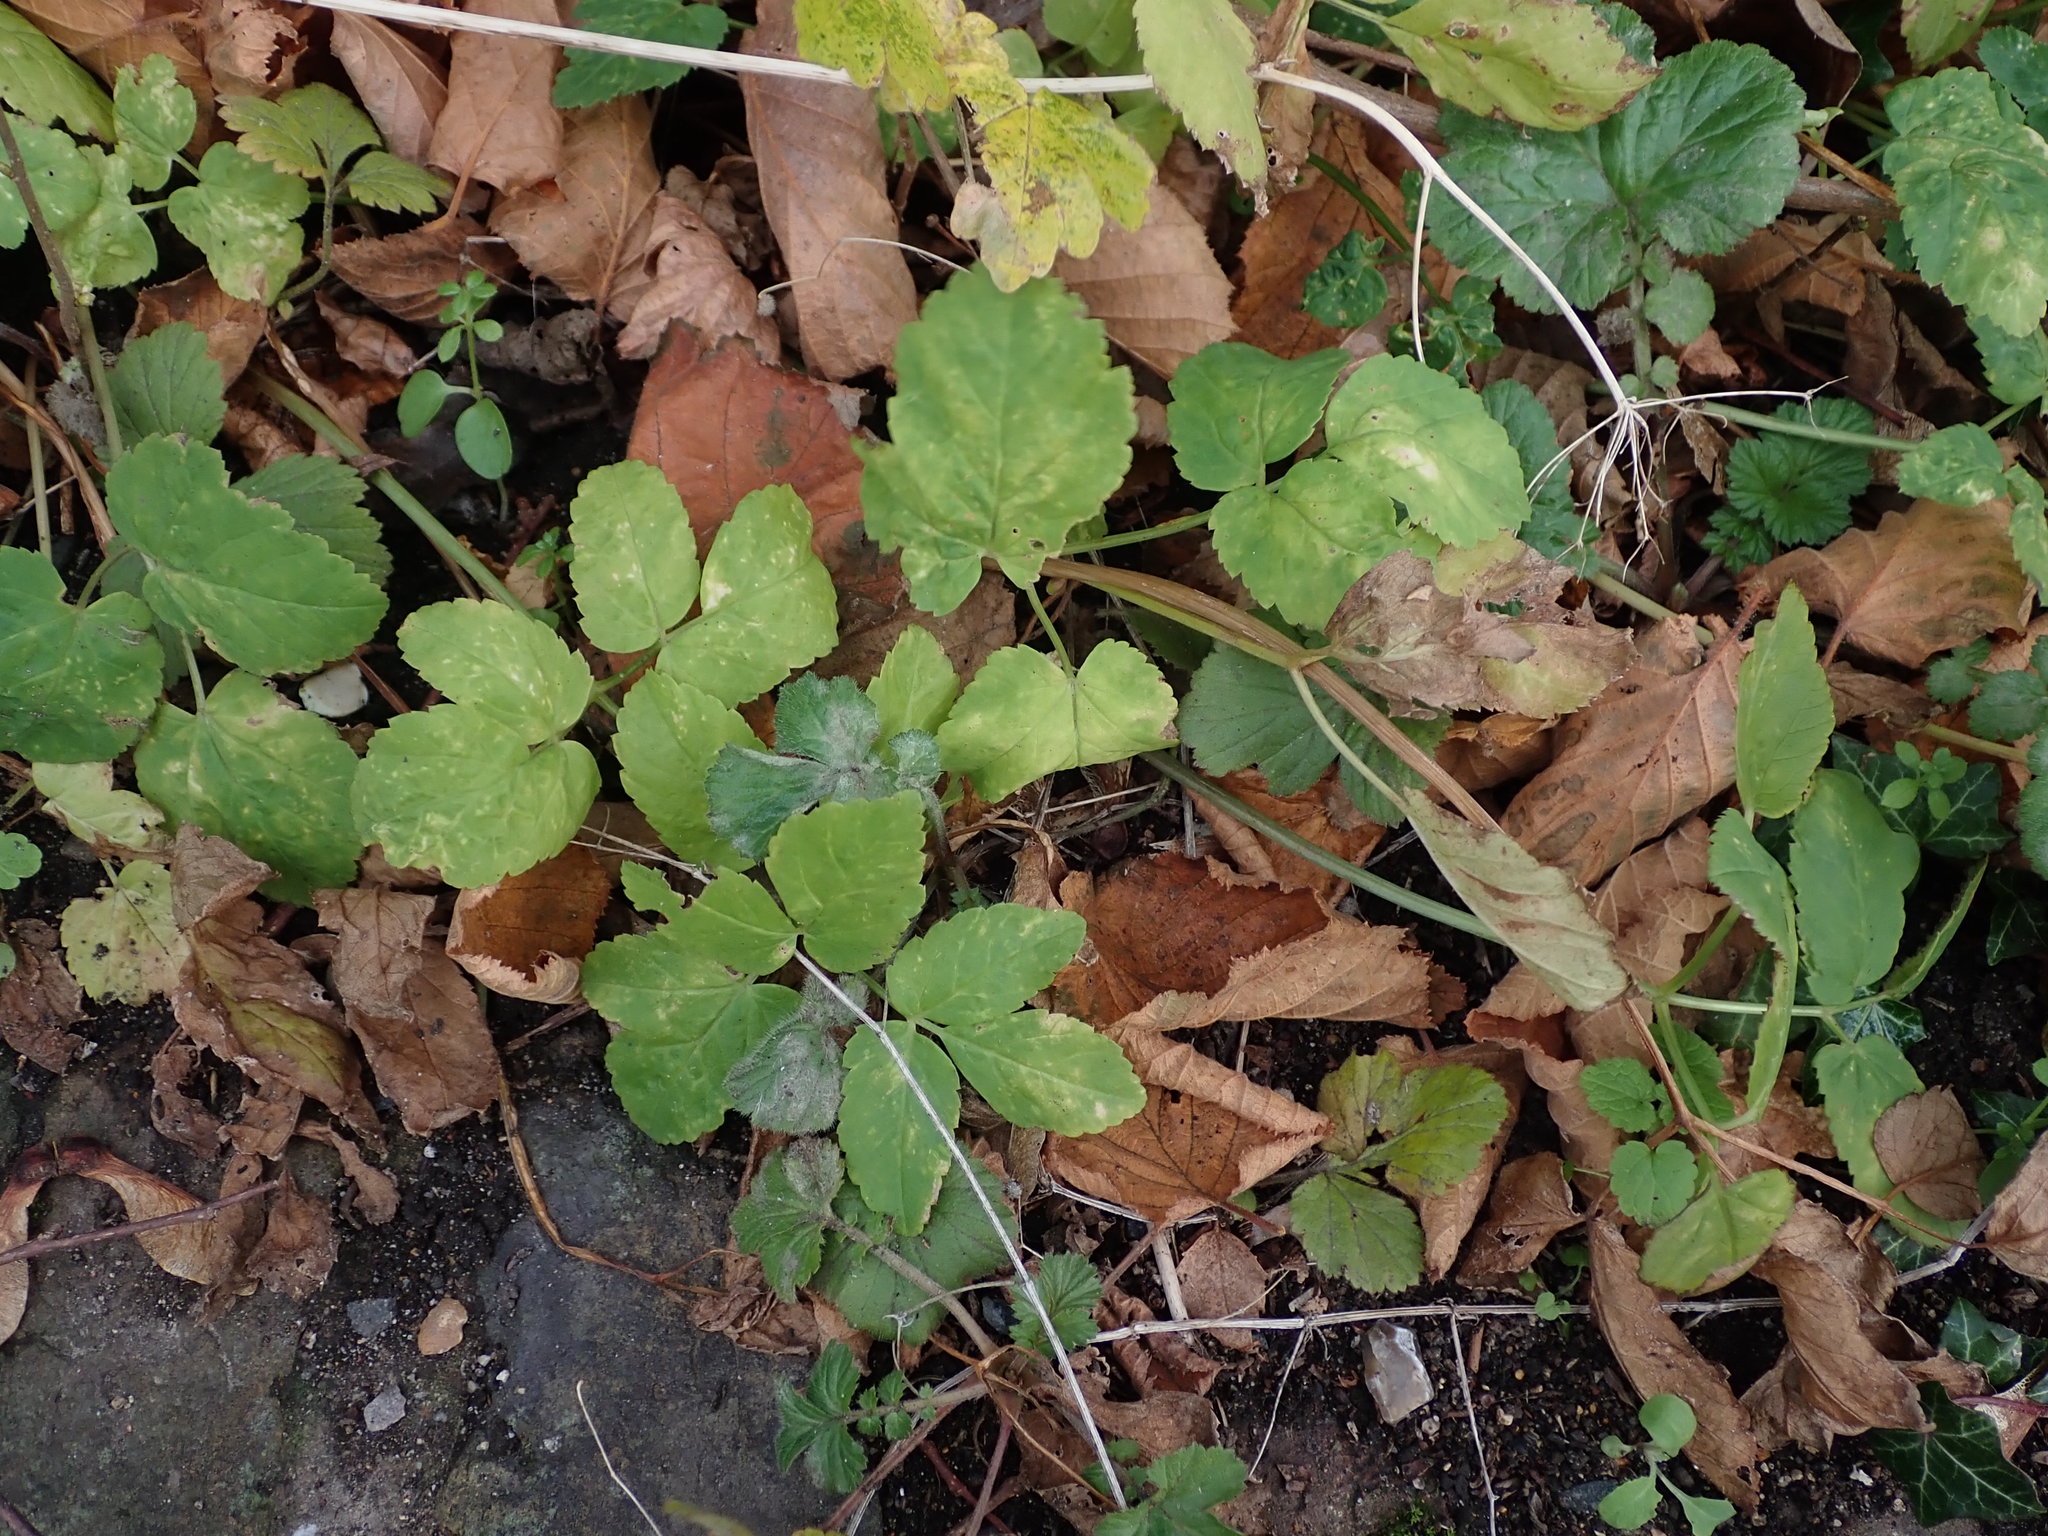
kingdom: Plantae
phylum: Tracheophyta
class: Magnoliopsida
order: Apiales
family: Apiaceae
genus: Aegopodium
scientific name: Aegopodium podagraria
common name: Ground-elder
